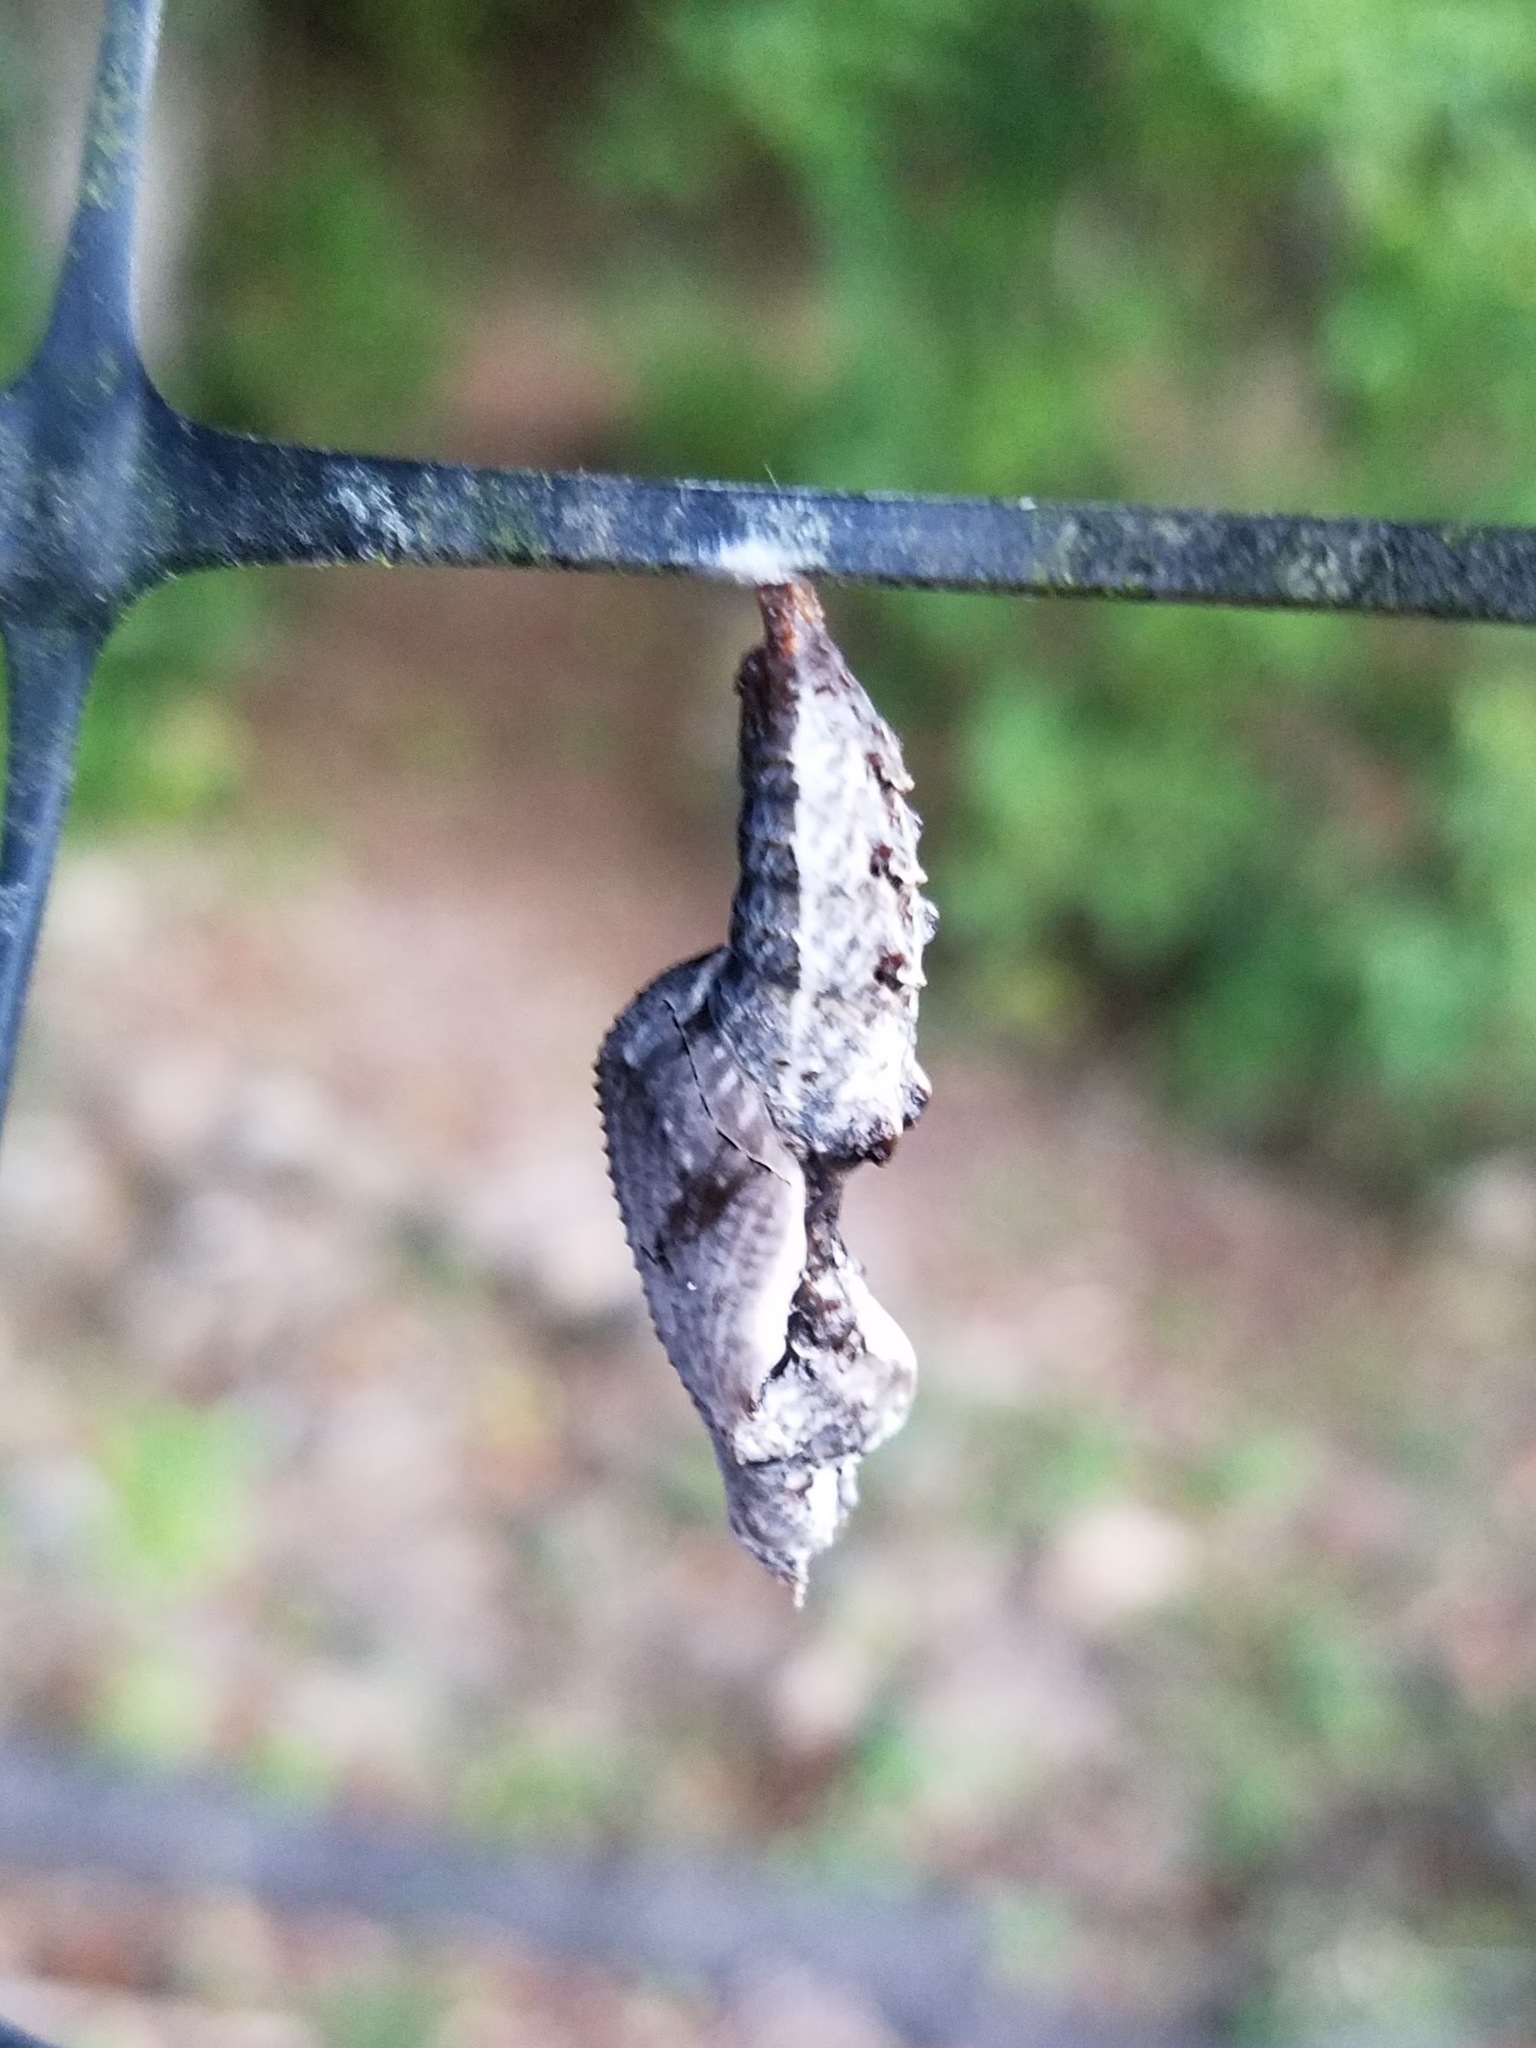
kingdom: Animalia
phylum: Arthropoda
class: Insecta
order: Lepidoptera
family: Nymphalidae
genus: Dione
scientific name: Dione vanillae
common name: Gulf fritillary
